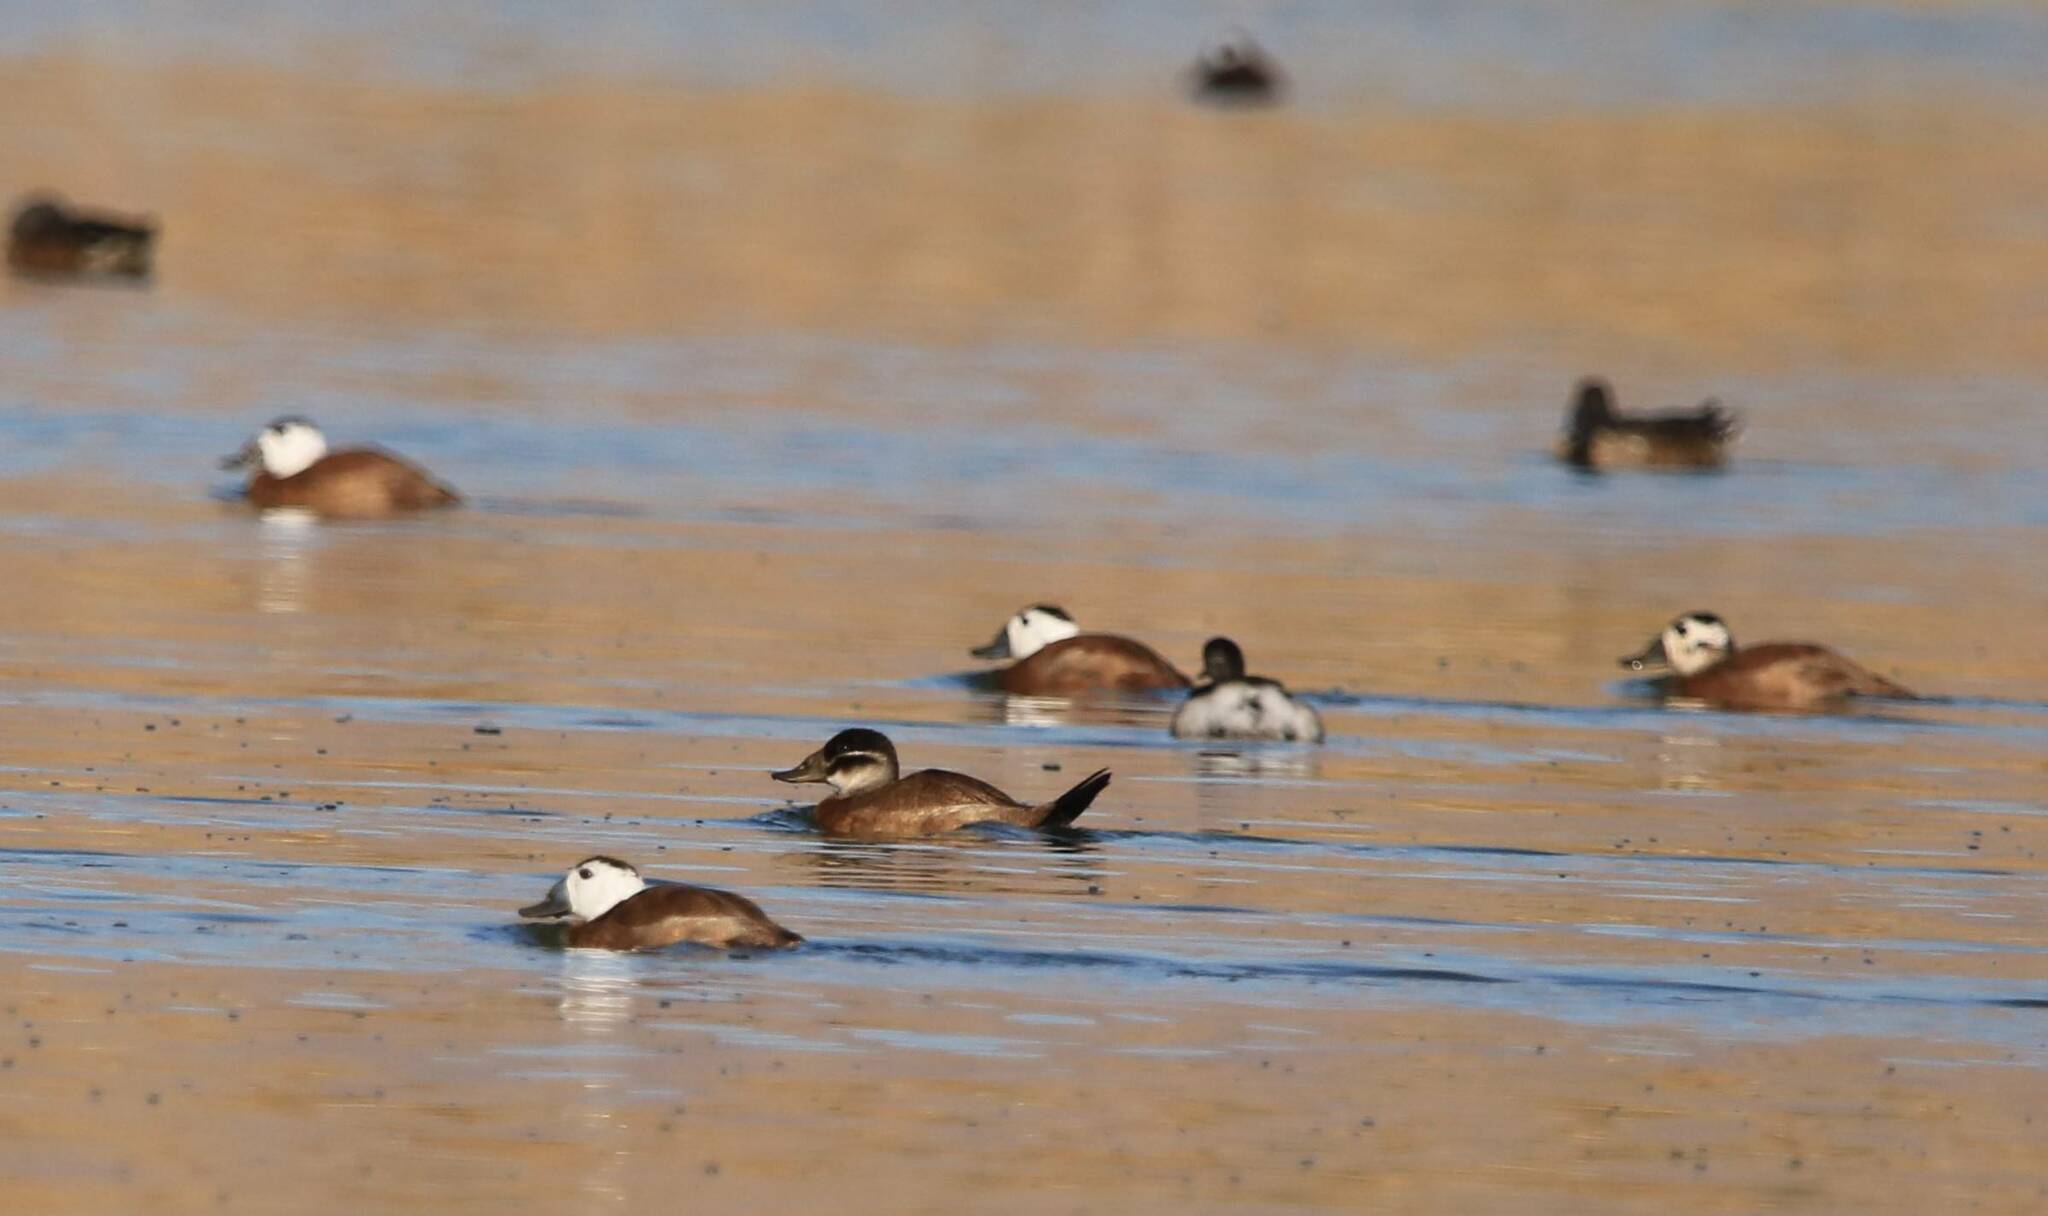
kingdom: Animalia
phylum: Chordata
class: Aves
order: Anseriformes
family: Anatidae
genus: Oxyura
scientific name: Oxyura leucocephala
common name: White-headed duck
